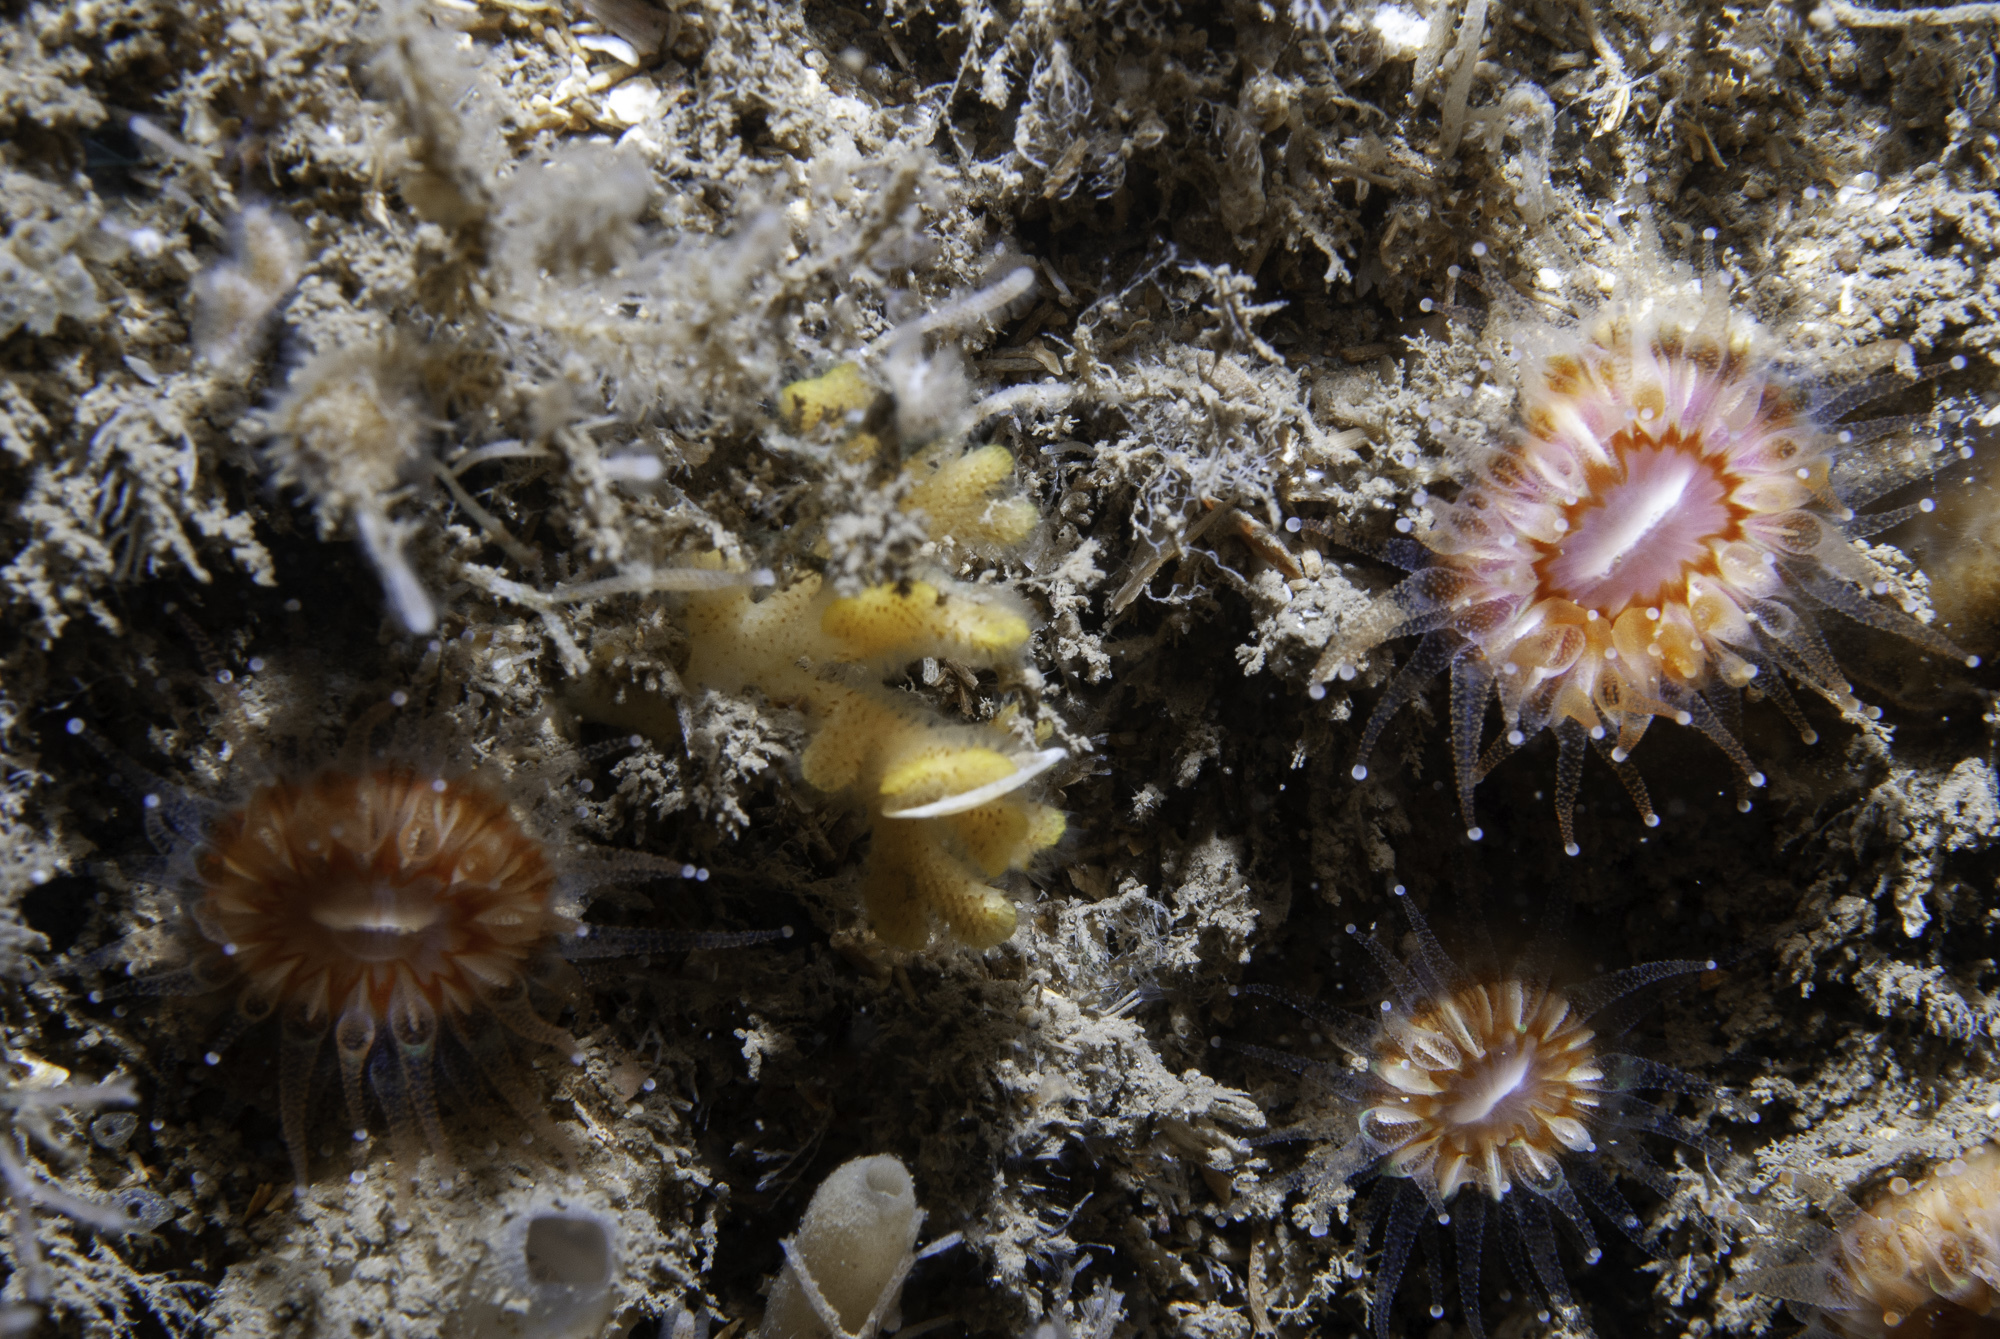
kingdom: Animalia
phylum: Bryozoa
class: Gymnolaemata
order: Cheilostomatida
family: Bryocryptellidae
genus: Palmiskenea
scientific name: Palmiskenea skenei
